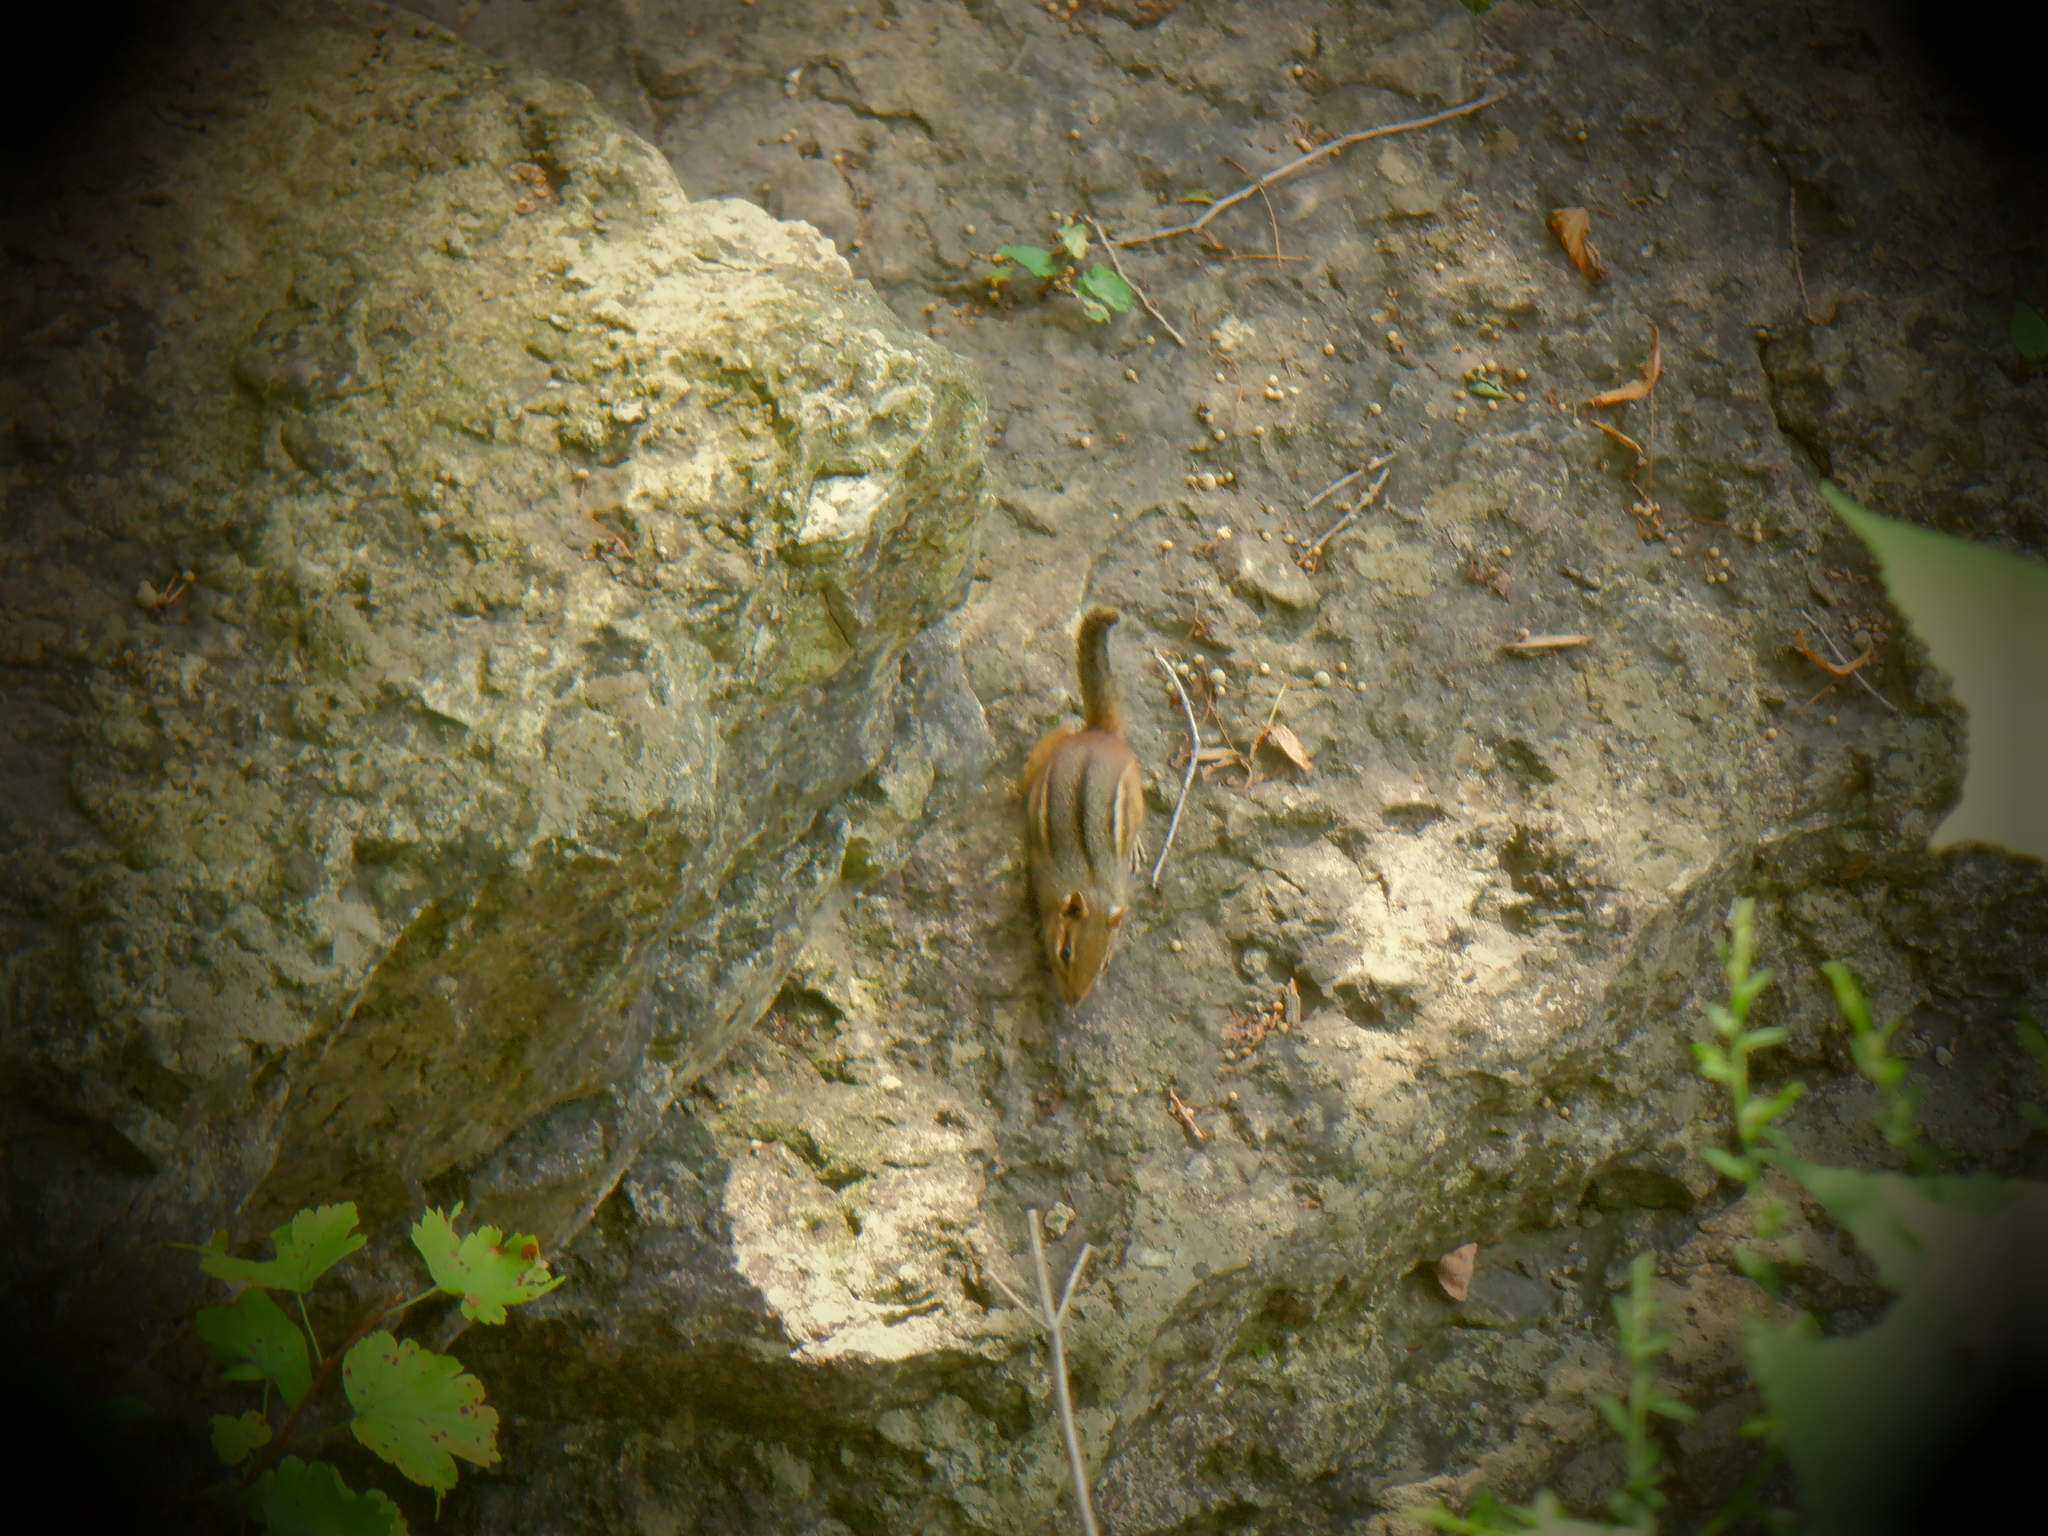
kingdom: Animalia
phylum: Chordata
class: Mammalia
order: Rodentia
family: Sciuridae
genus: Tamias
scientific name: Tamias striatus
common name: Eastern chipmunk
